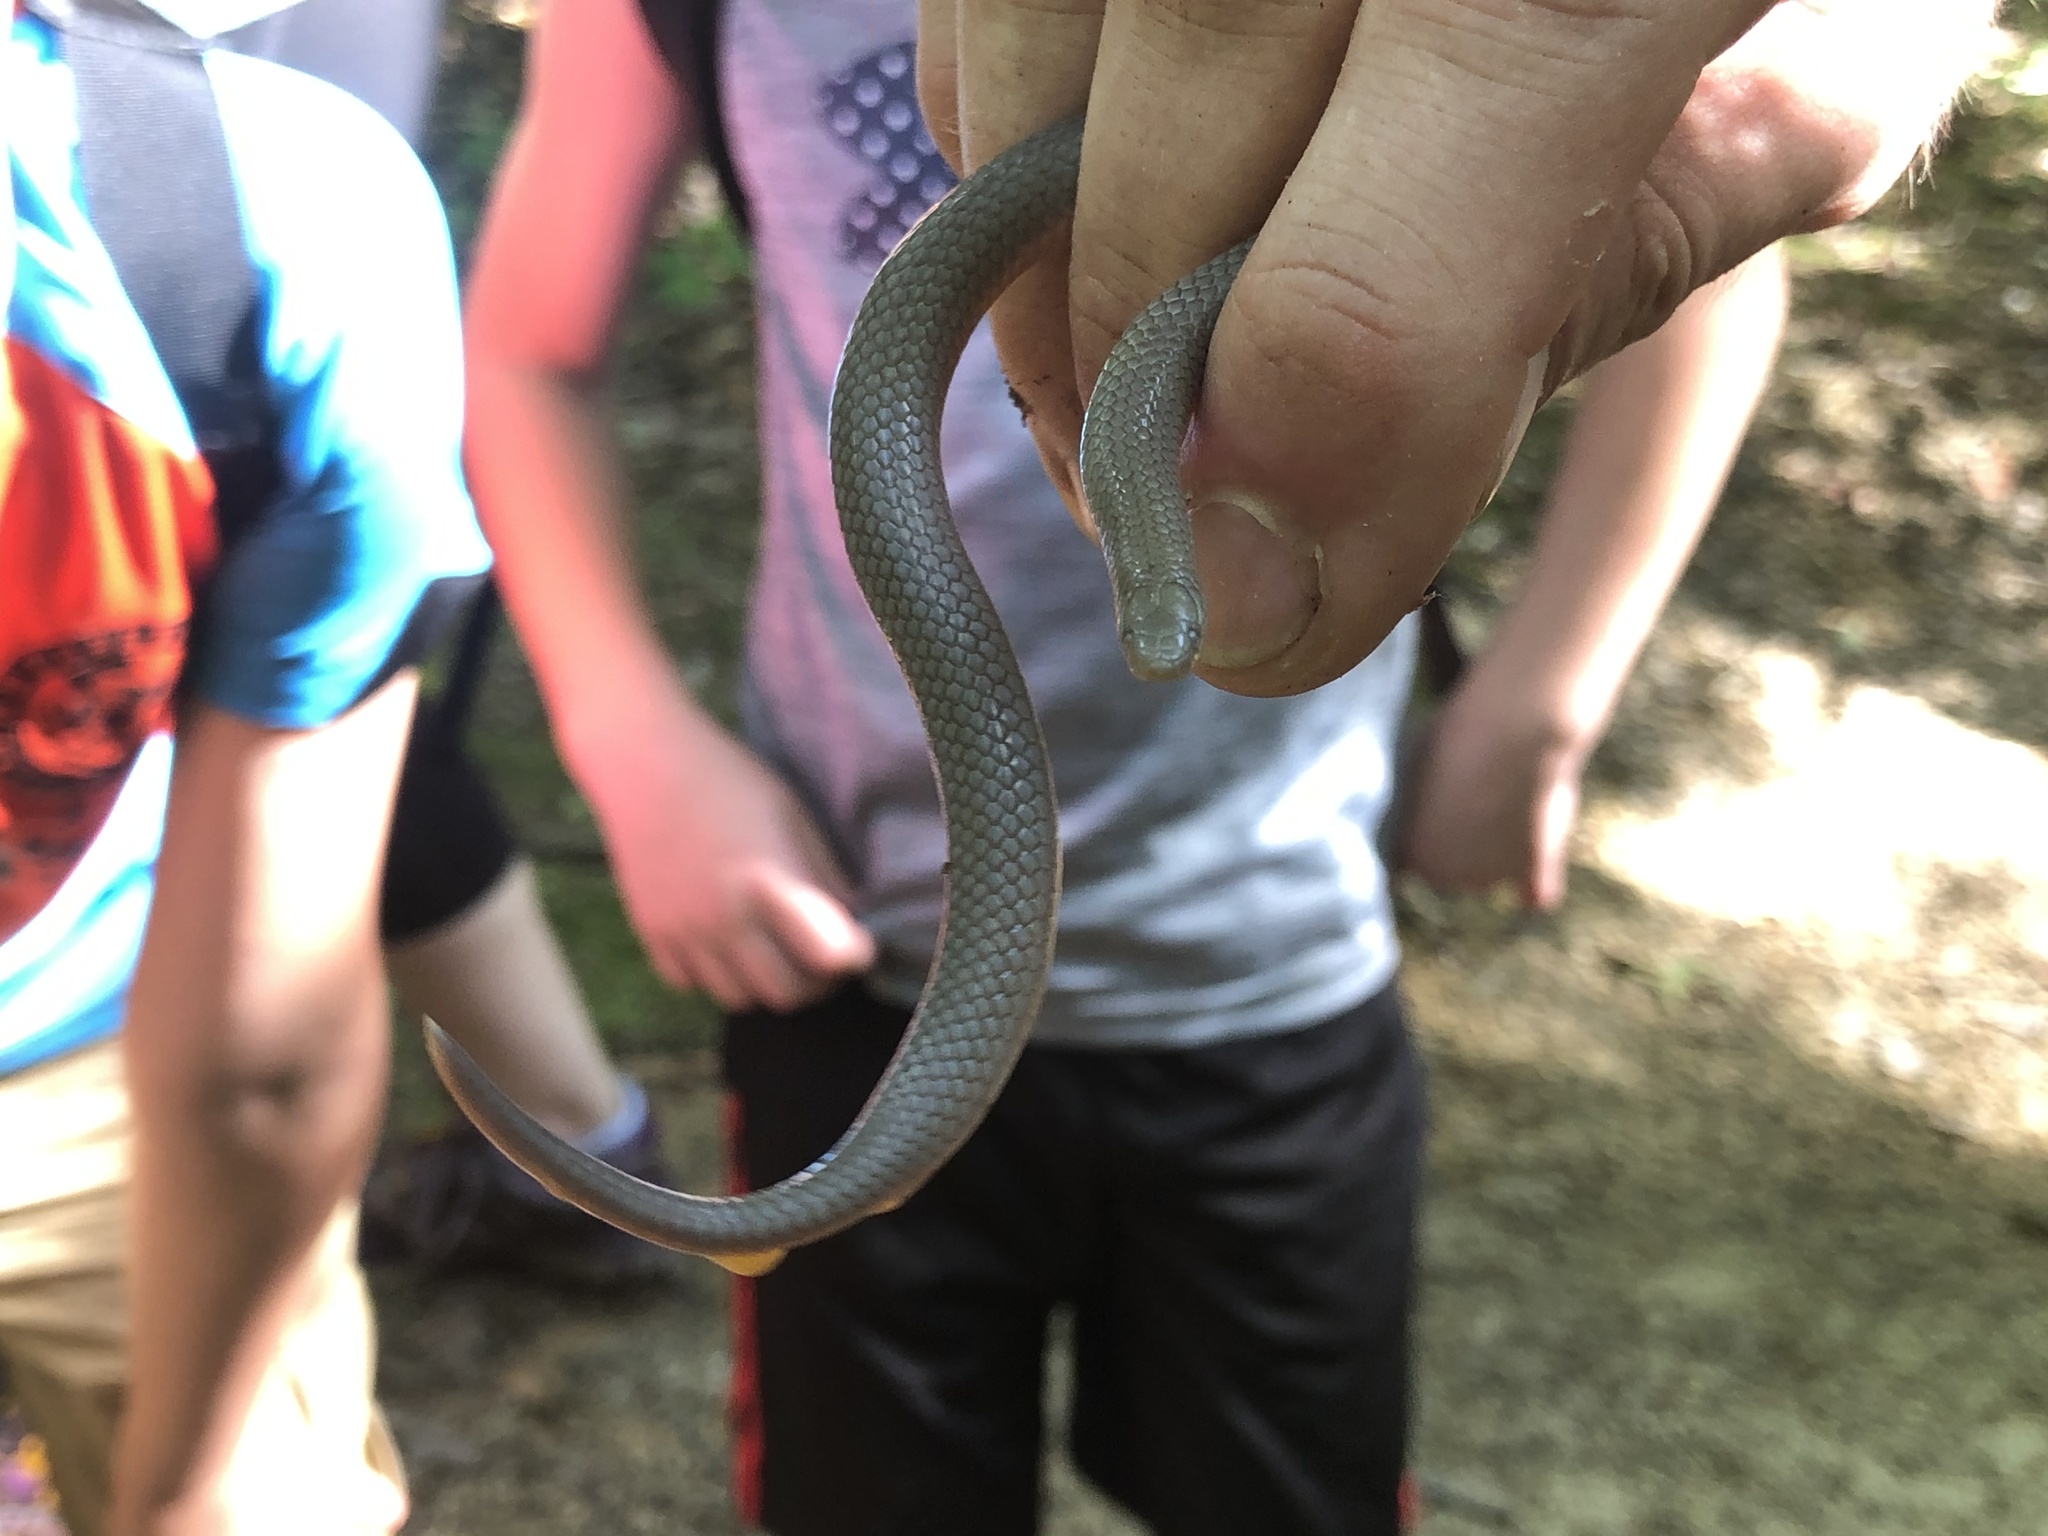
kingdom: Animalia
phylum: Chordata
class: Squamata
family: Colubridae
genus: Carphophis
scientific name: Carphophis amoenus
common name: Eastern worm snake
